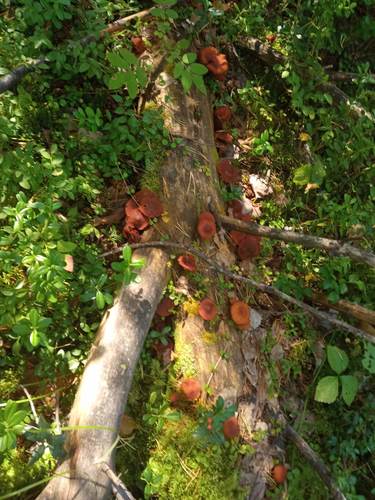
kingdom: Fungi
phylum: Basidiomycota
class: Agaricomycetes
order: Agaricales
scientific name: Agaricales
